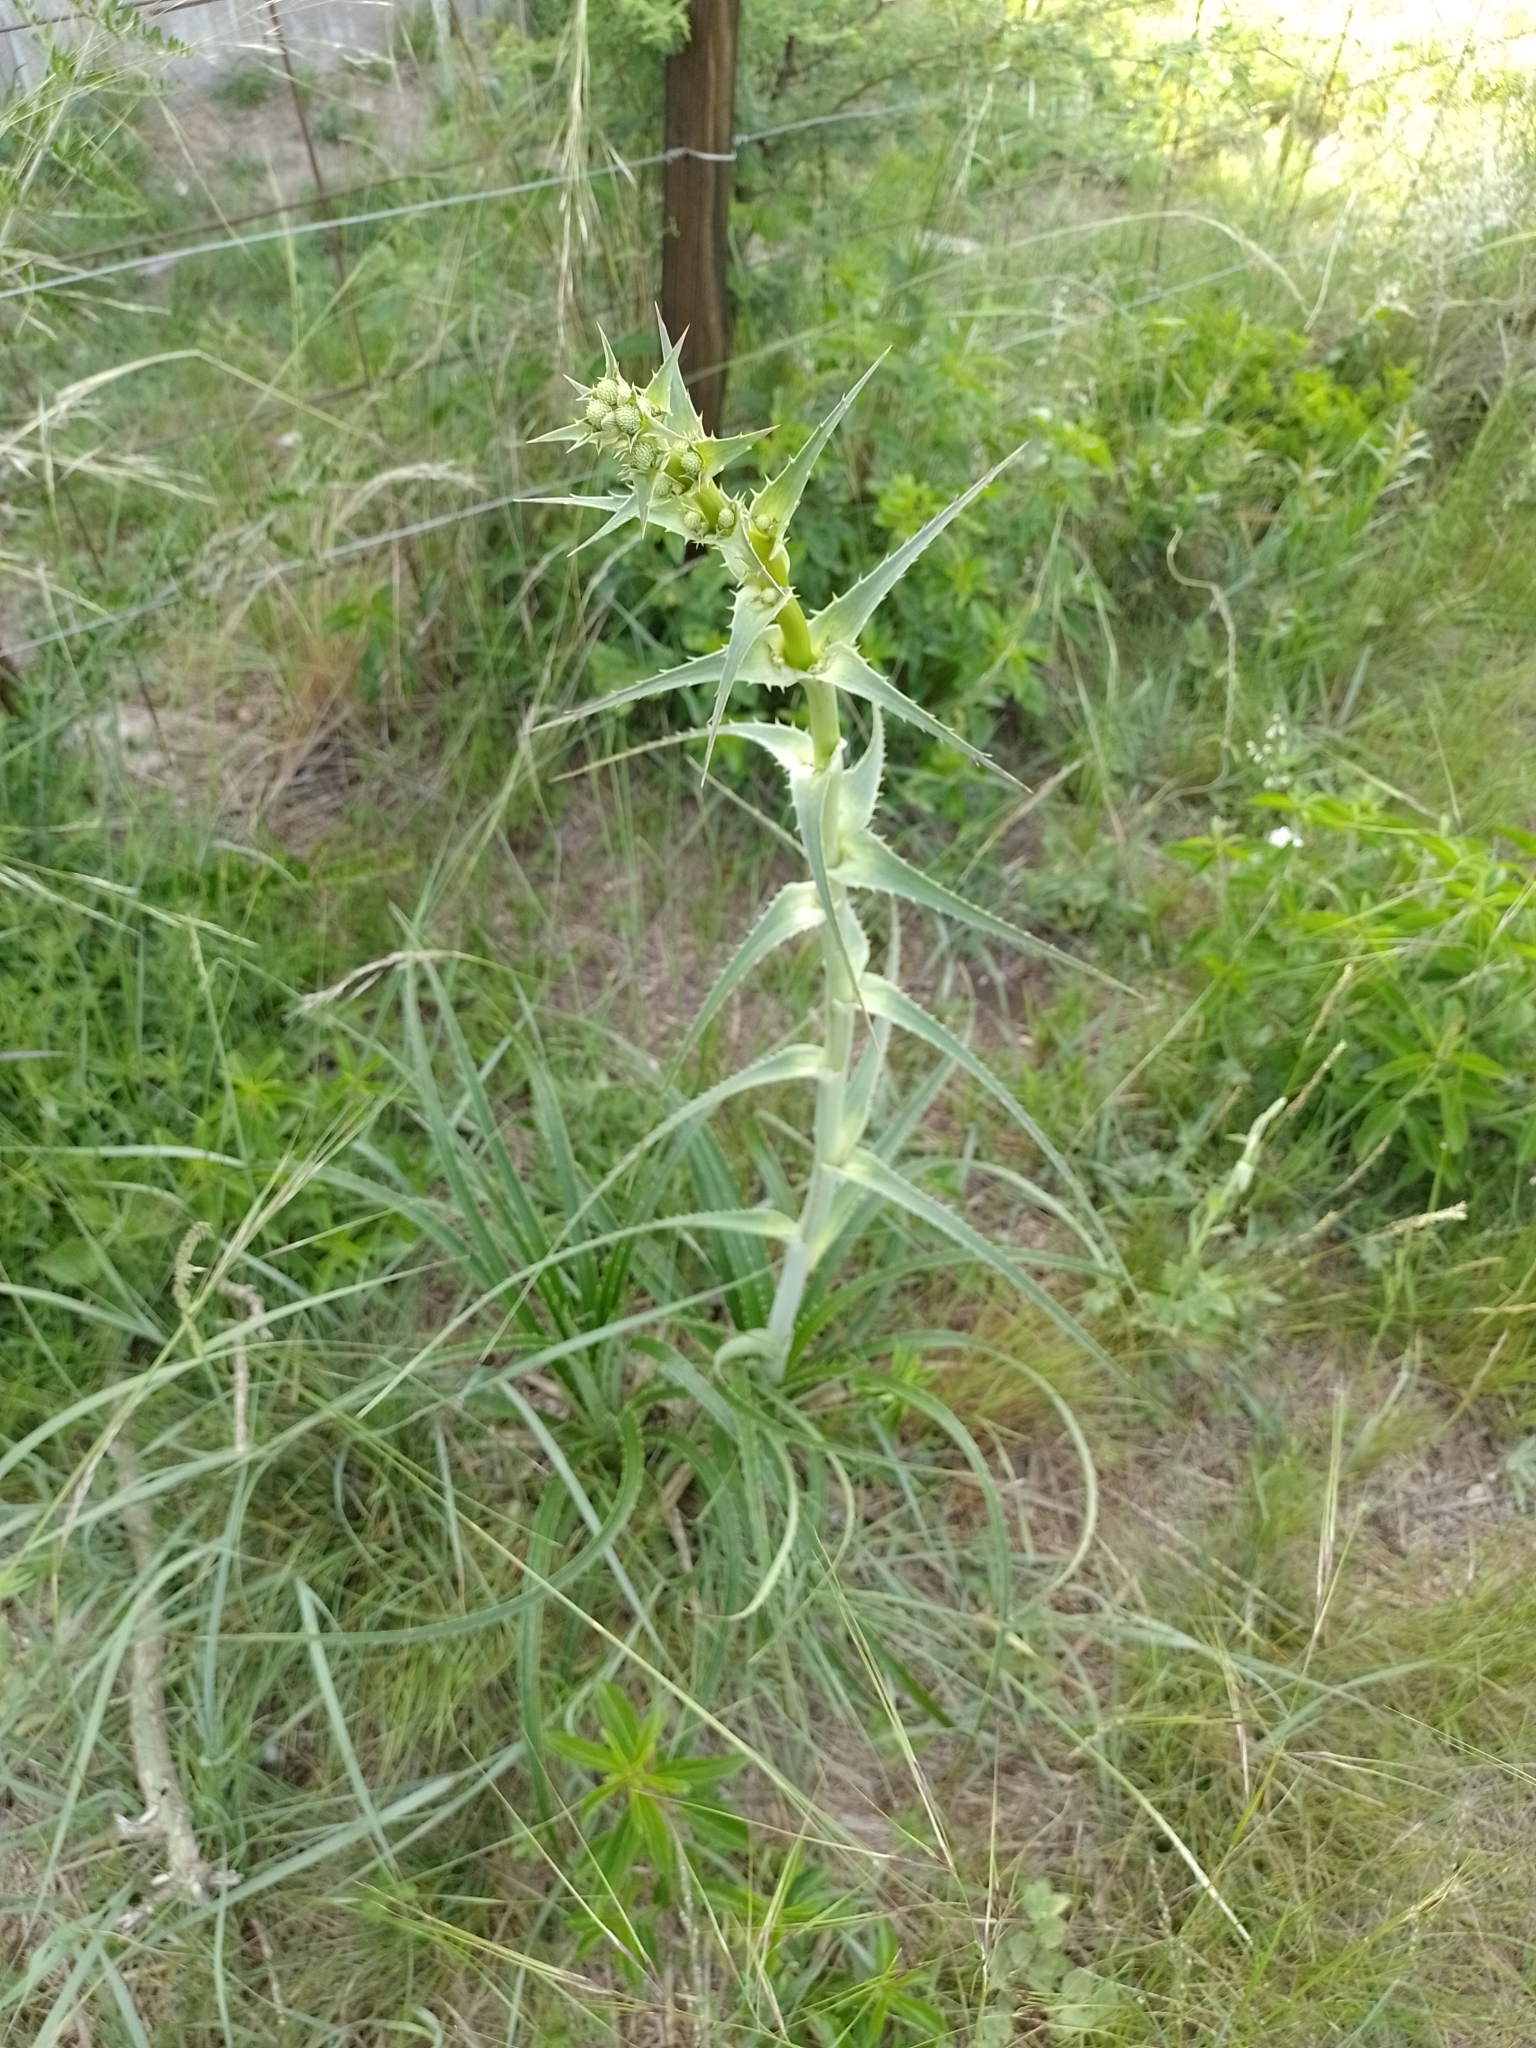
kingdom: Plantae
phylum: Tracheophyta
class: Magnoliopsida
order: Apiales
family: Apiaceae
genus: Eryngium
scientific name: Eryngium horridum
